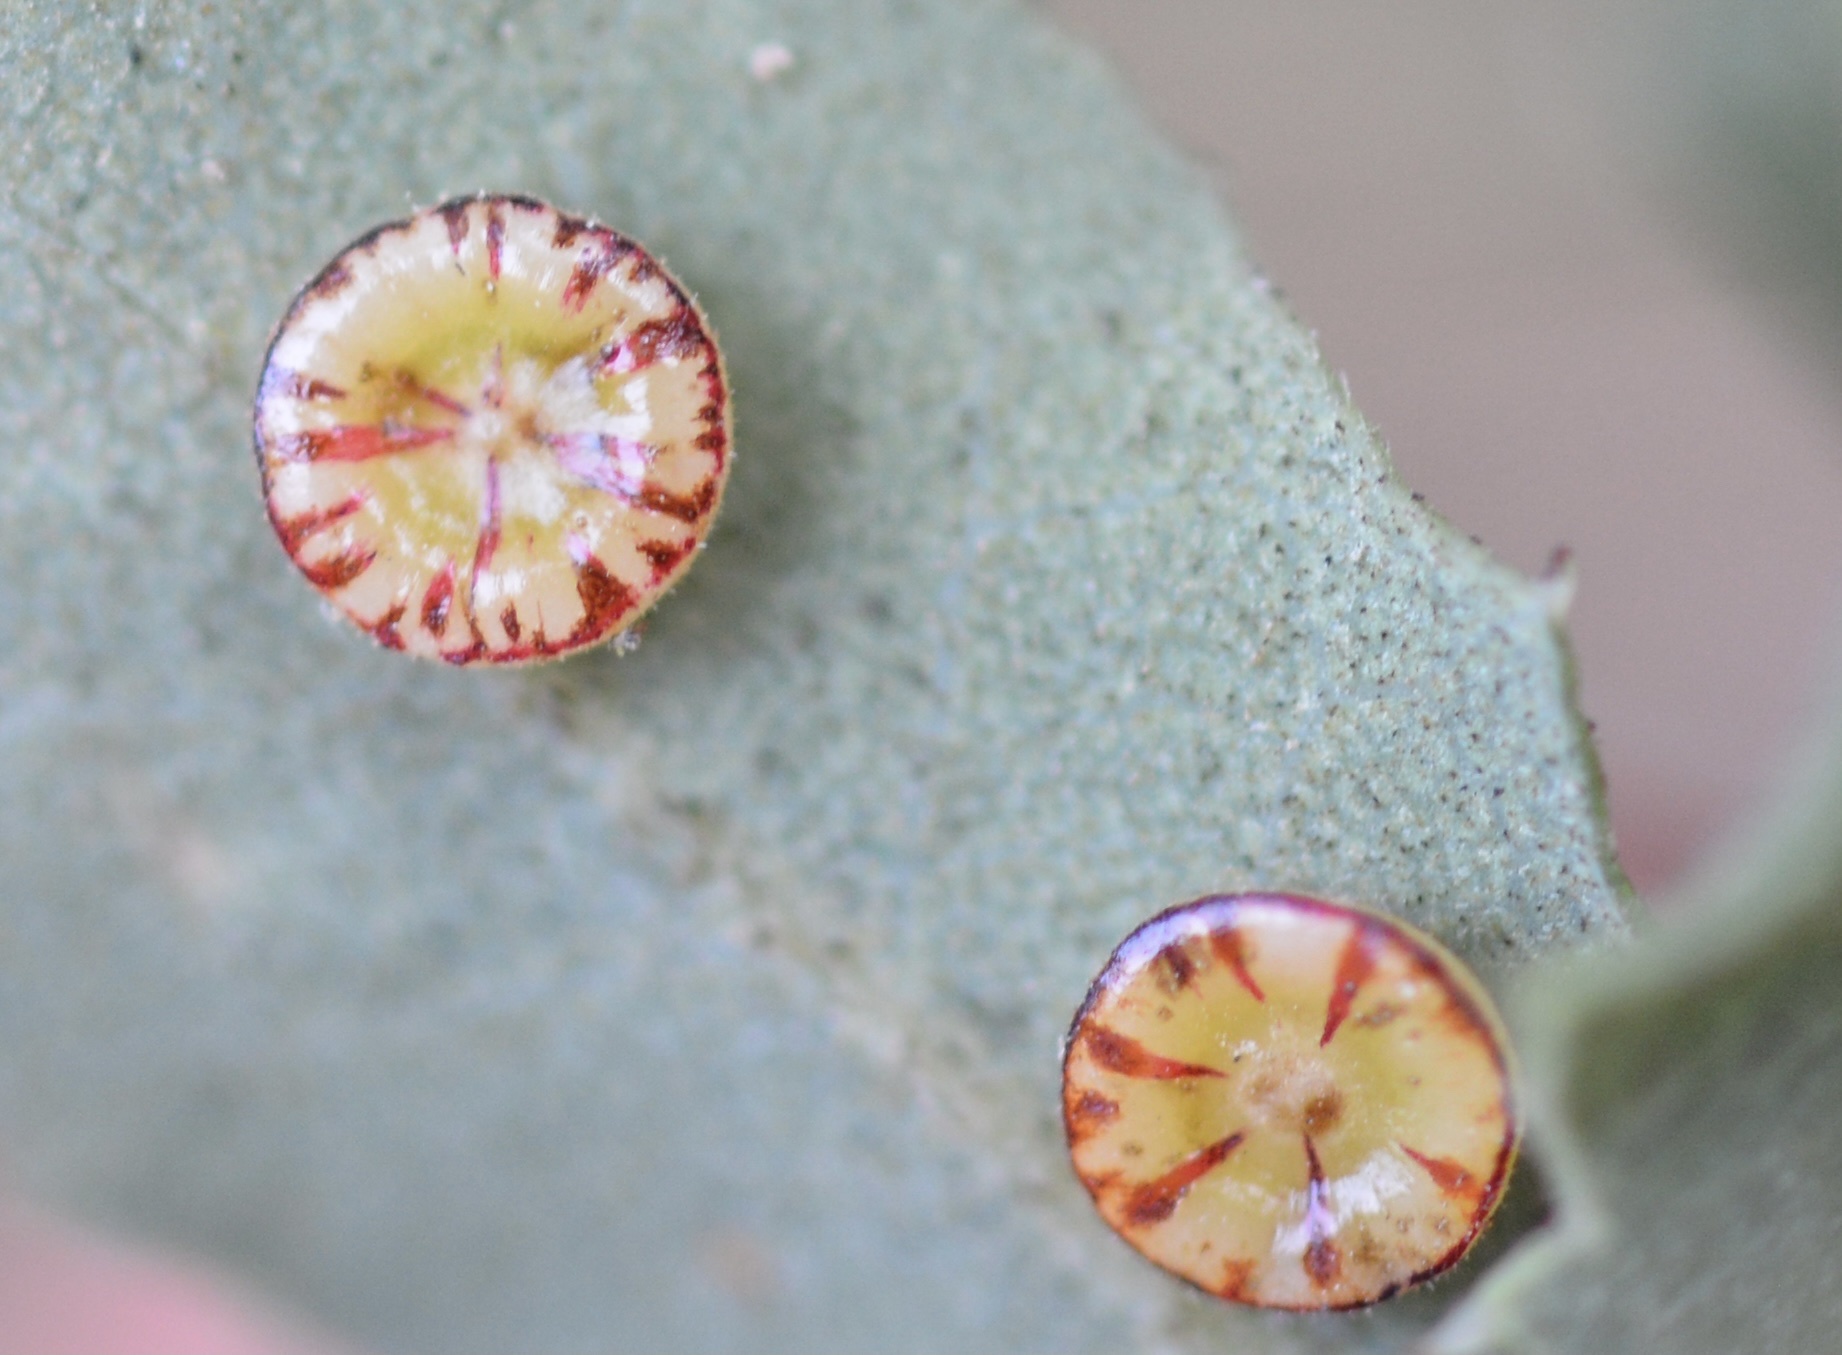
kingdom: Animalia
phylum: Arthropoda
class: Insecta
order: Hymenoptera
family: Cynipidae
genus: Andricus
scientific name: Andricus
